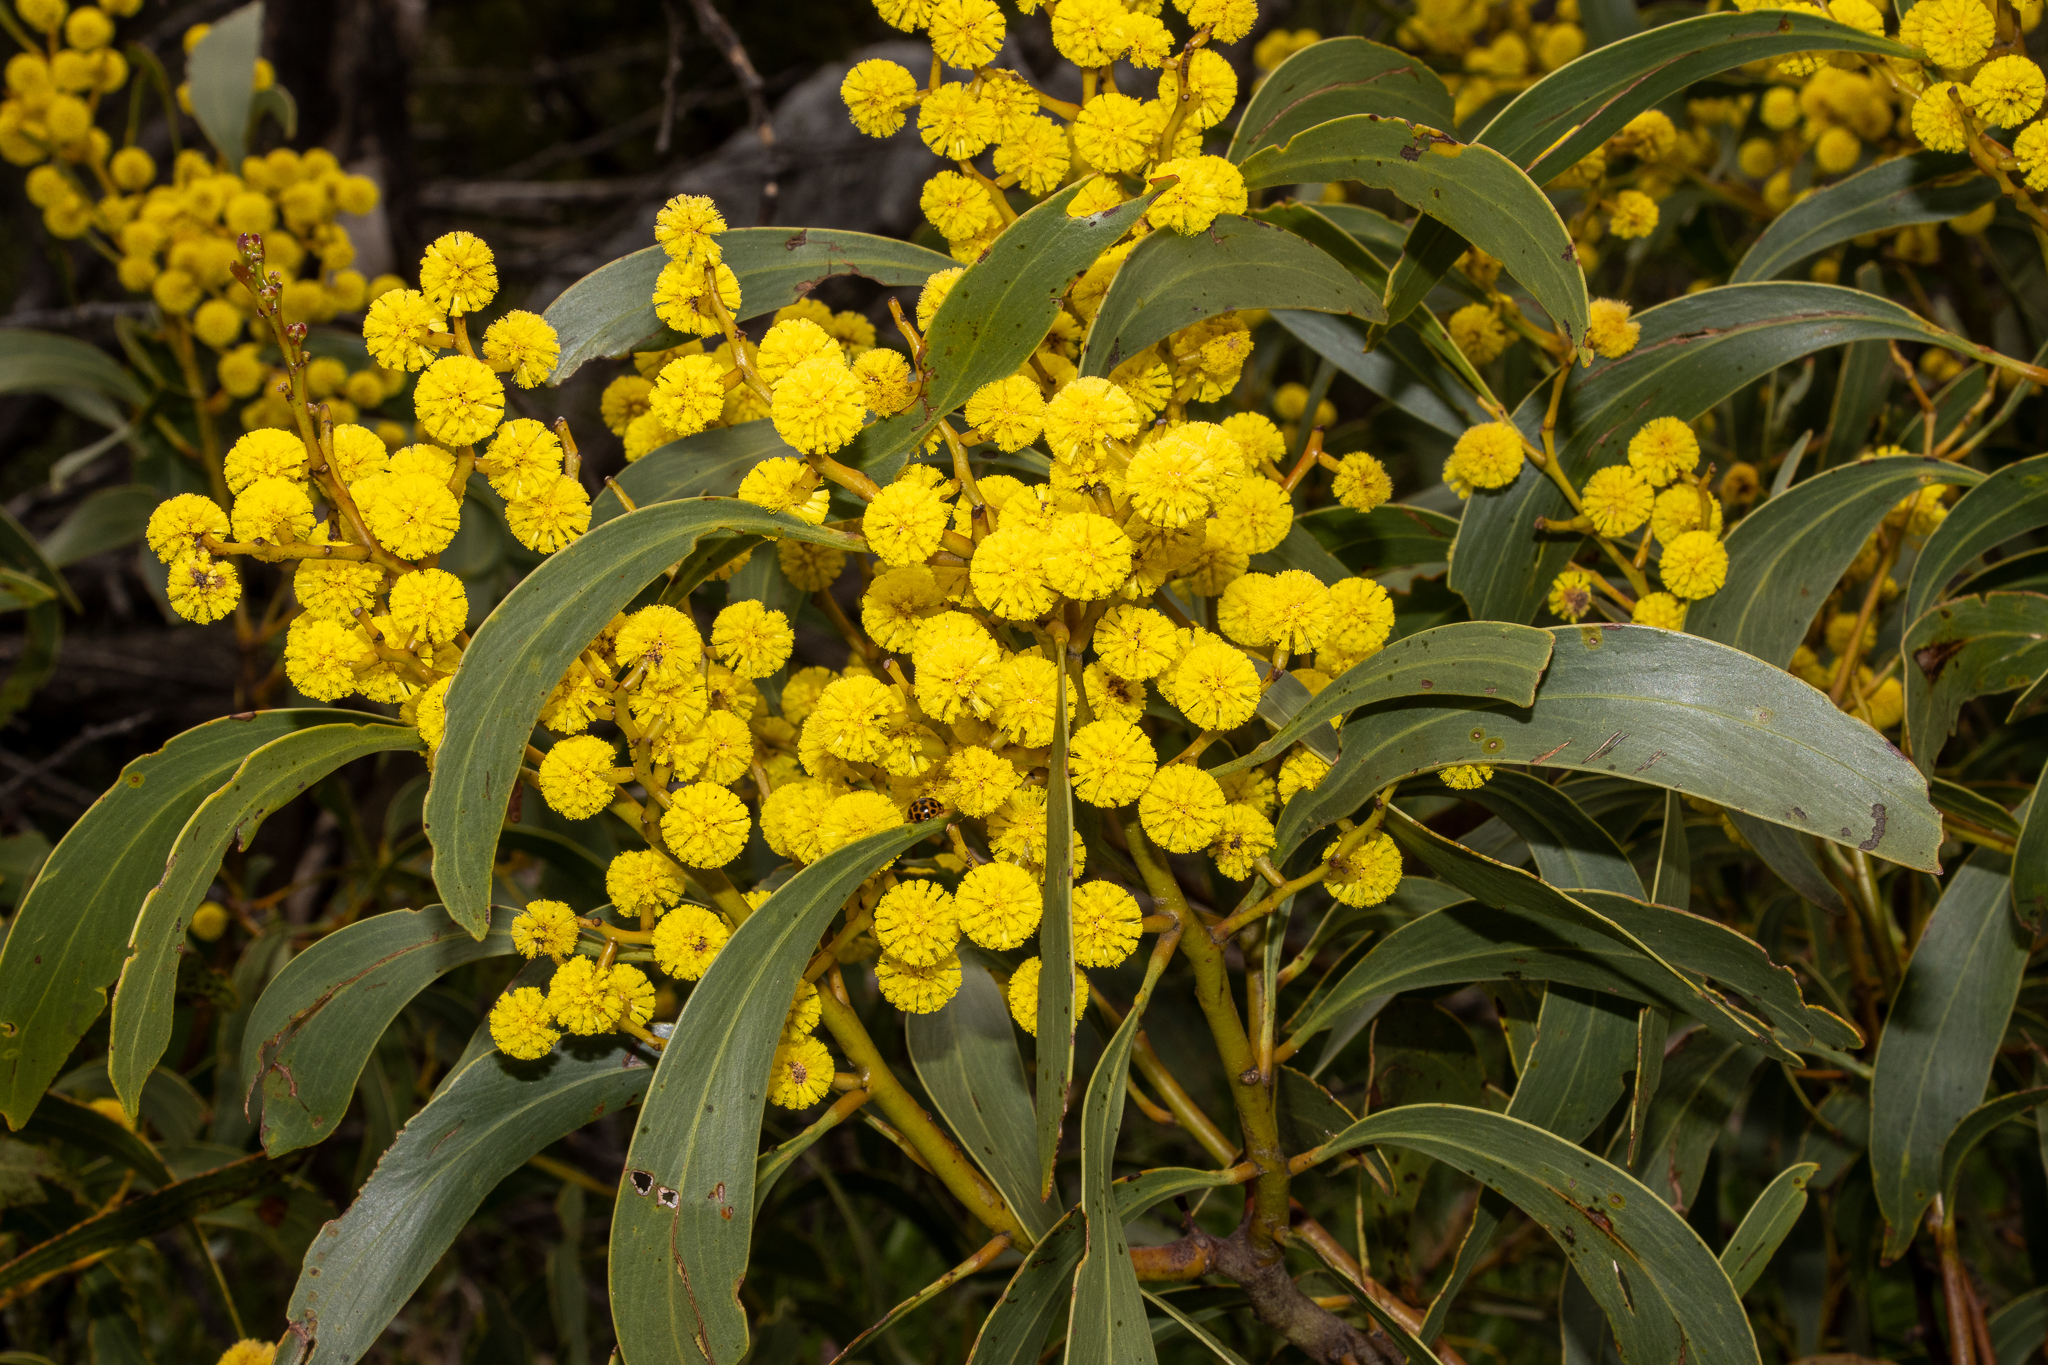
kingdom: Plantae
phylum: Tracheophyta
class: Magnoliopsida
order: Fabales
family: Fabaceae
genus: Acacia
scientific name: Acacia pycnantha
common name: Golden wattle
